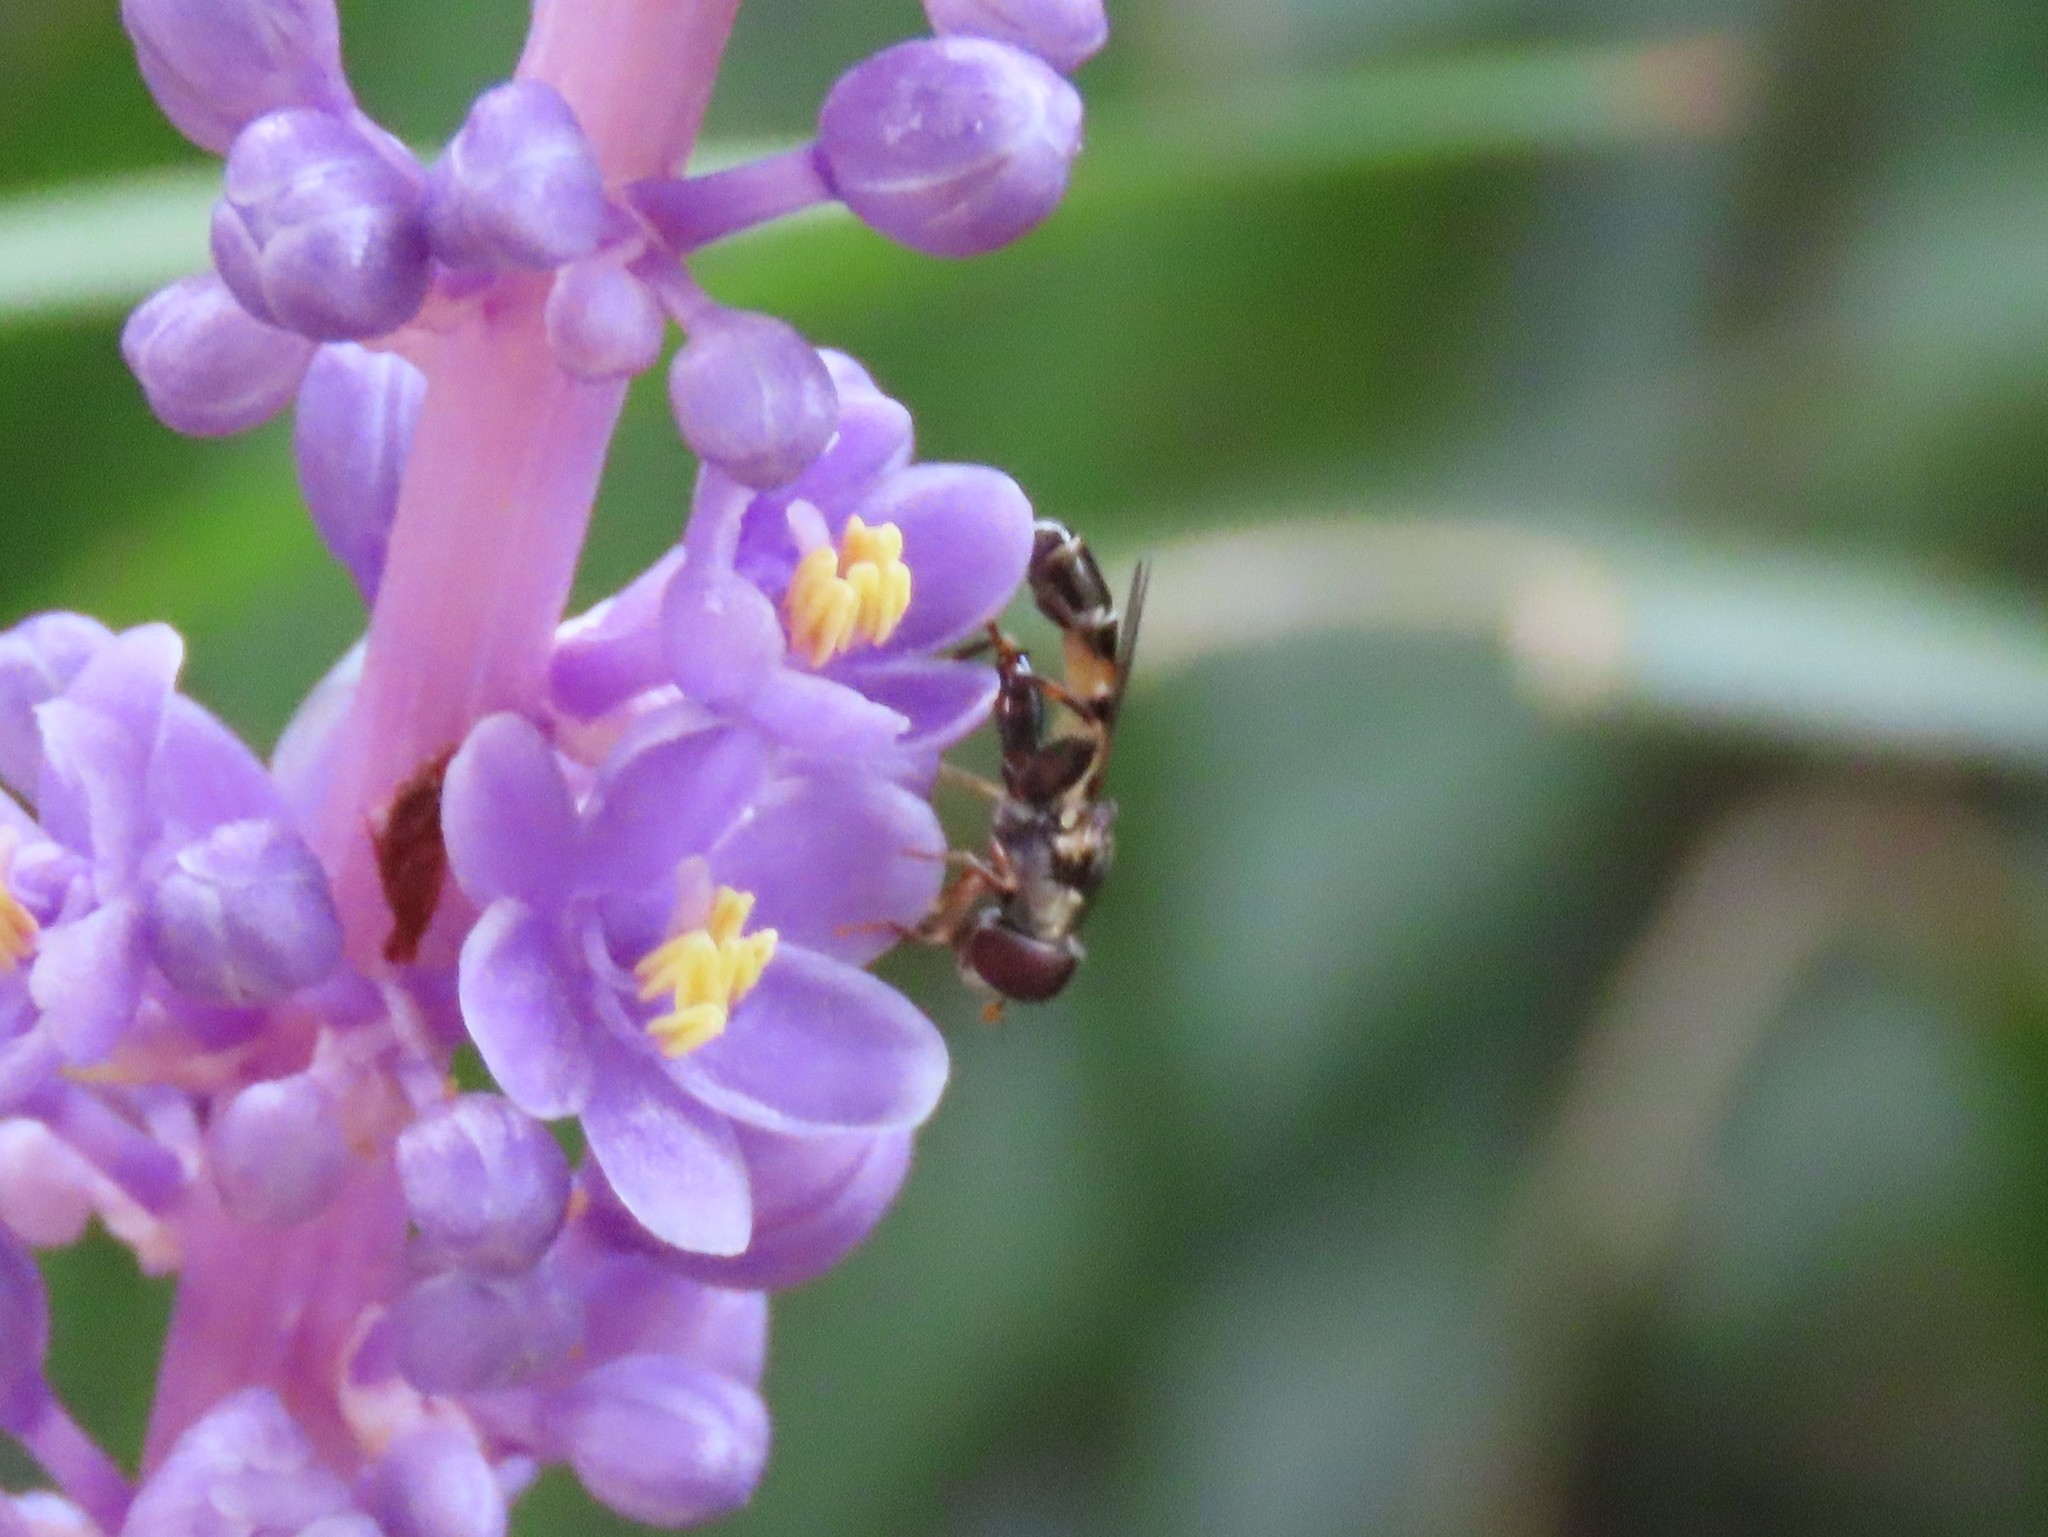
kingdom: Animalia
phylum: Arthropoda
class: Insecta
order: Diptera
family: Syrphidae
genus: Syritta
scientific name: Syritta pipiens
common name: Hover fly
